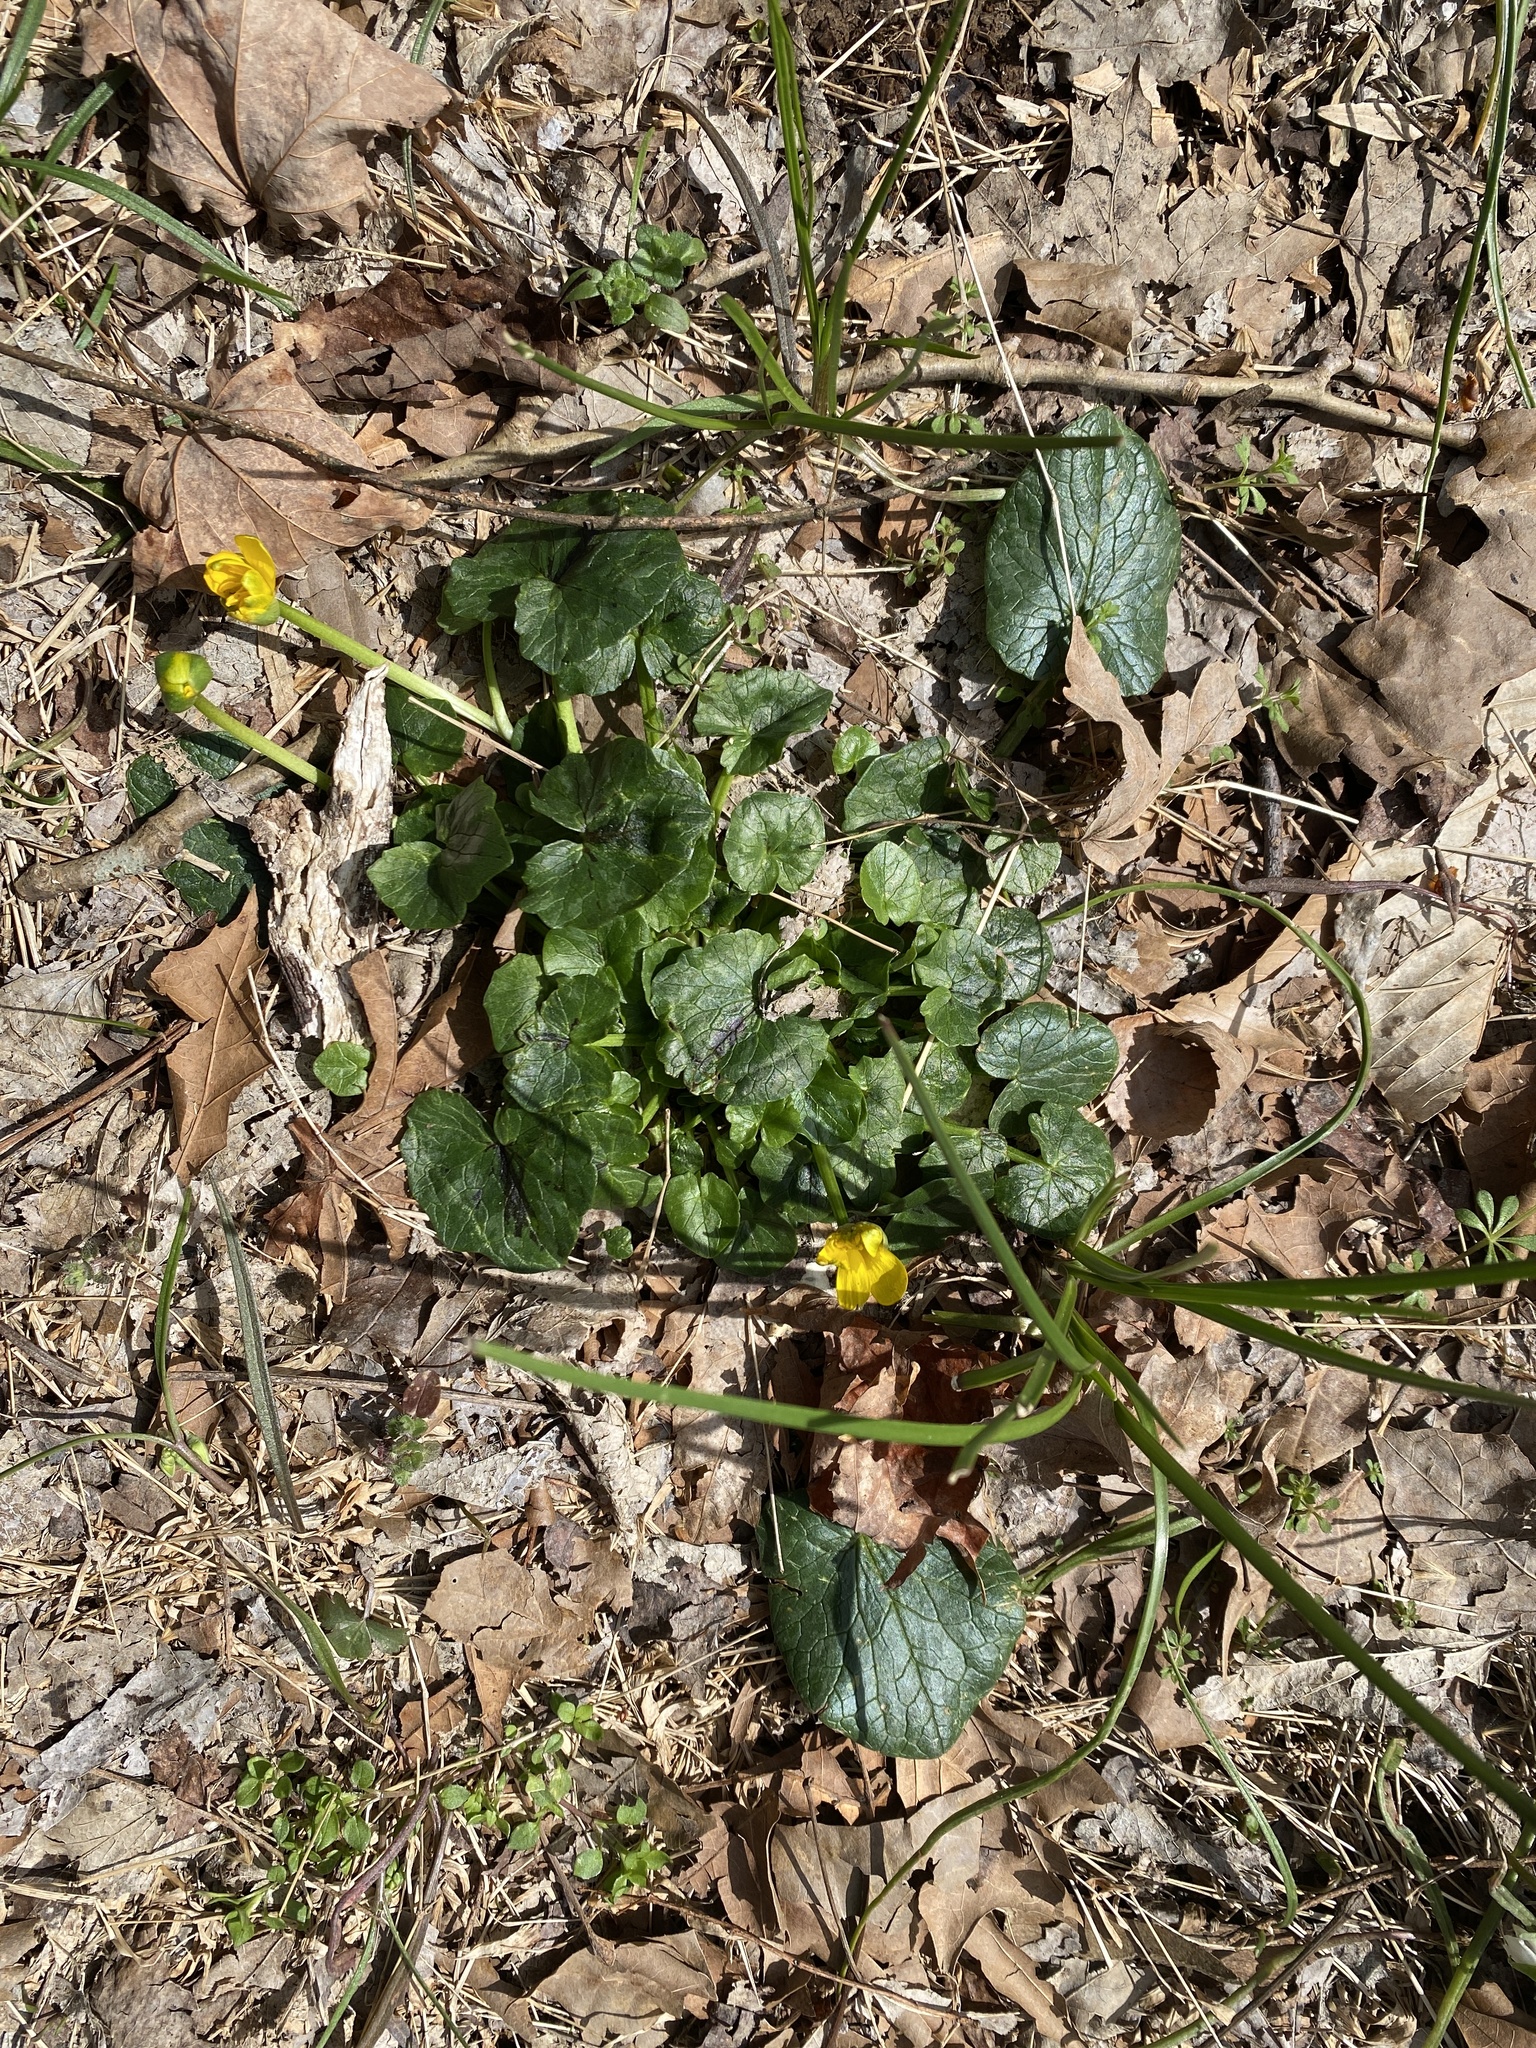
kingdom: Plantae
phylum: Tracheophyta
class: Magnoliopsida
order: Ranunculales
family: Ranunculaceae
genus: Ficaria
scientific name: Ficaria verna
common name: Lesser celandine
